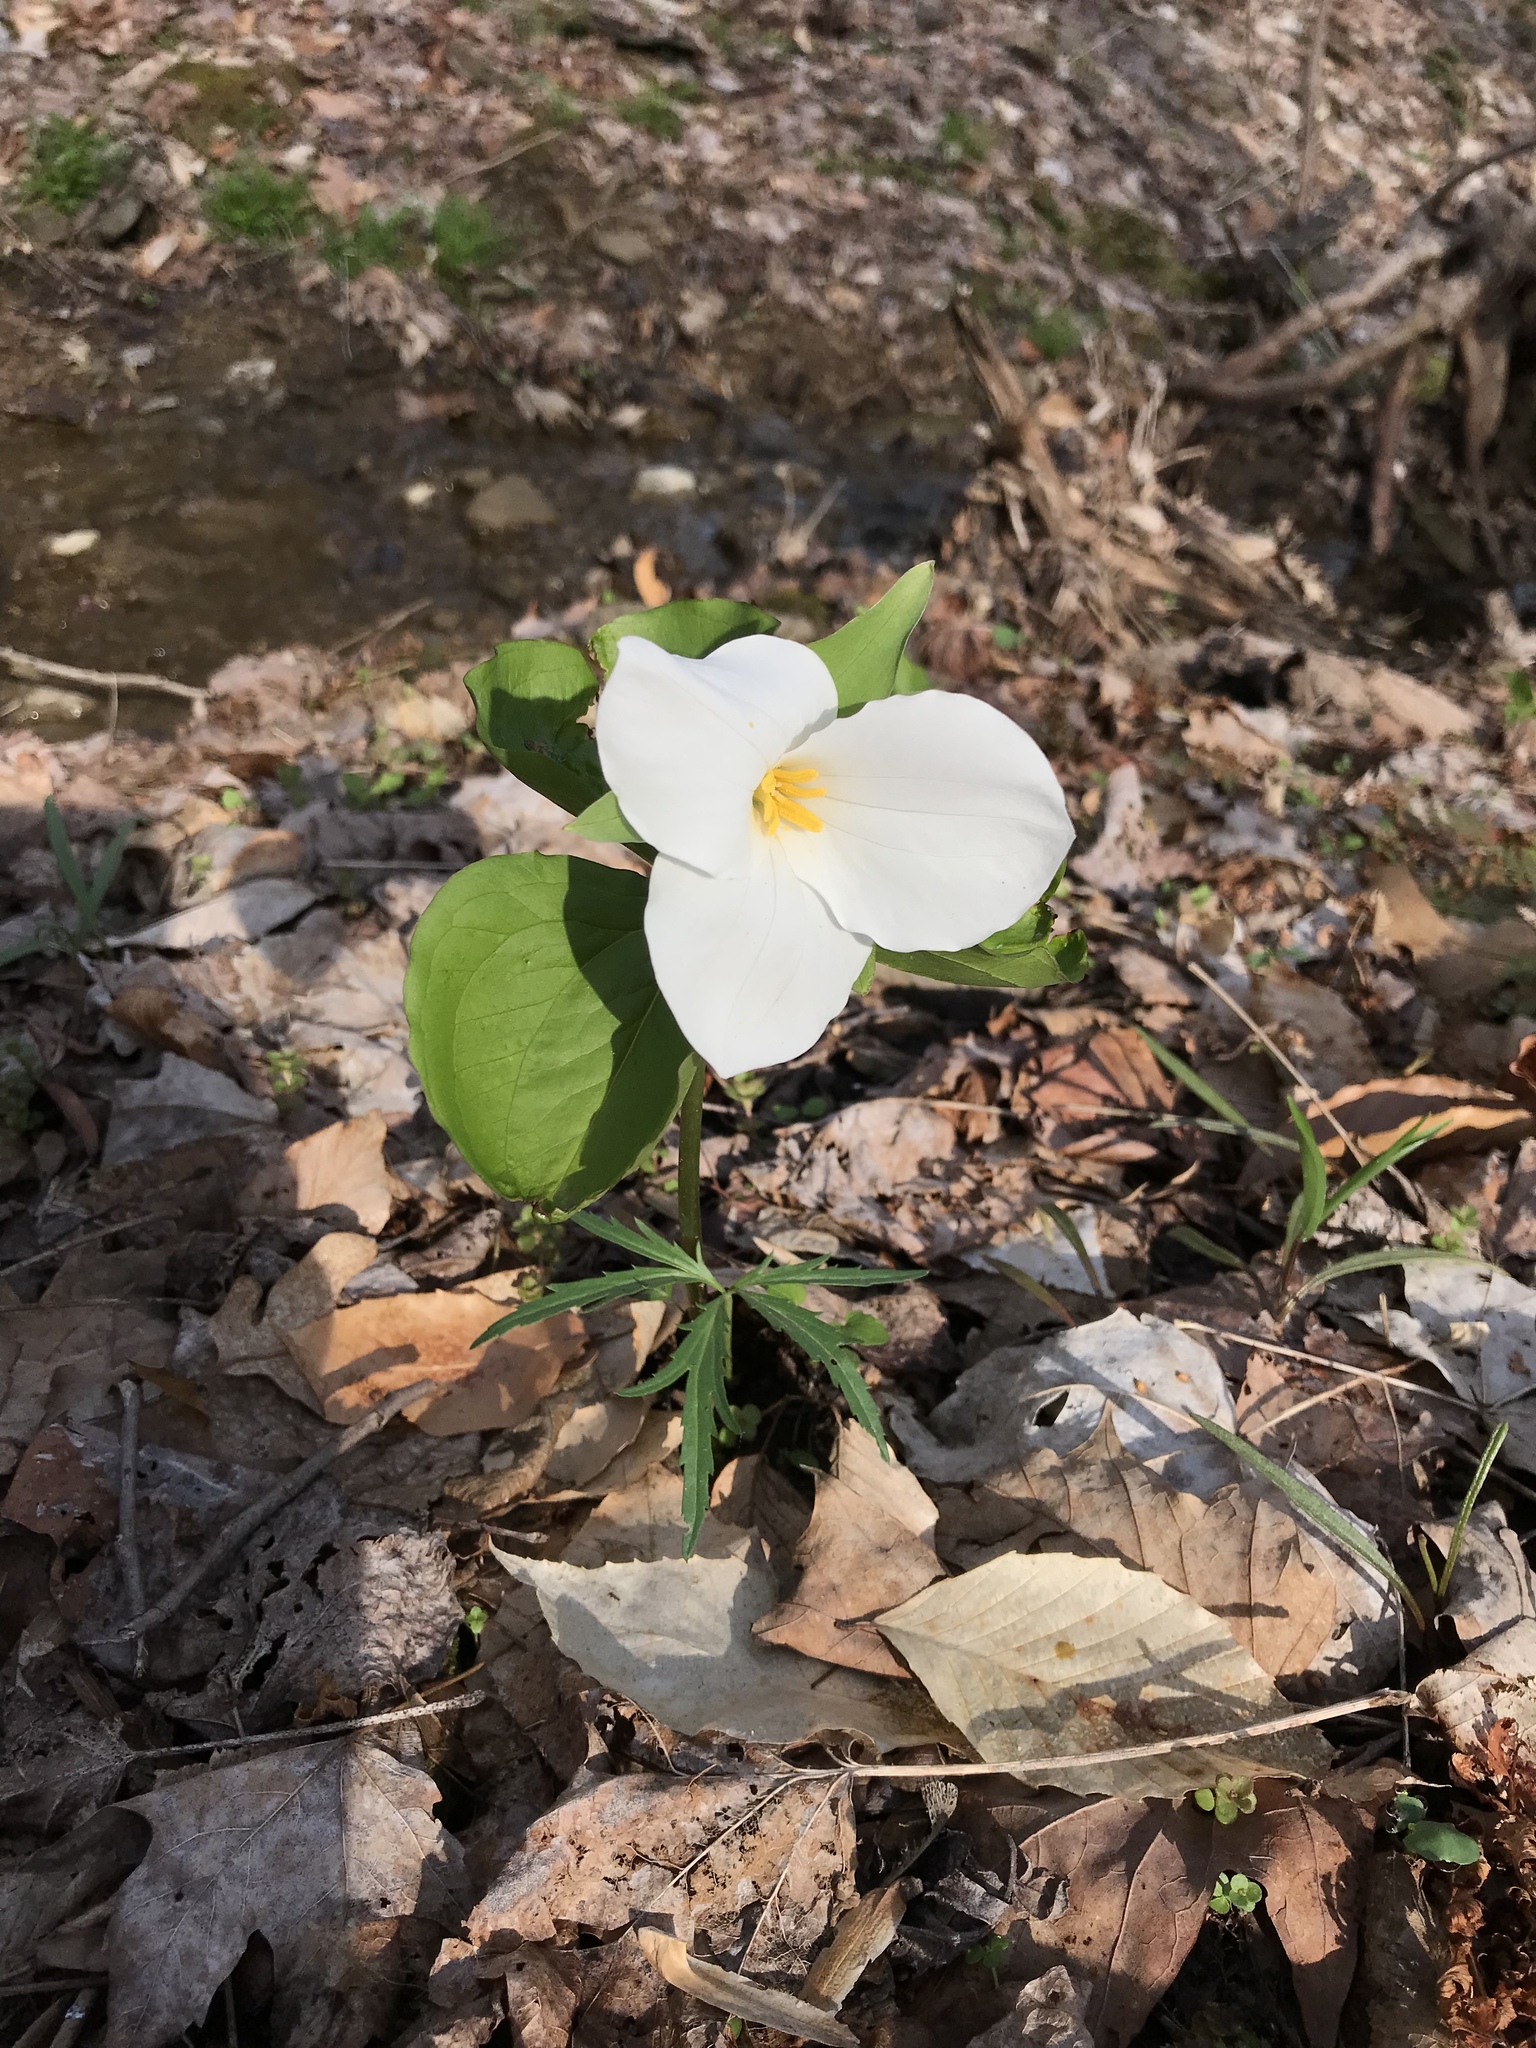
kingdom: Plantae
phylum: Tracheophyta
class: Liliopsida
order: Liliales
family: Melanthiaceae
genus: Trillium
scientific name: Trillium grandiflorum
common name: Great white trillium
